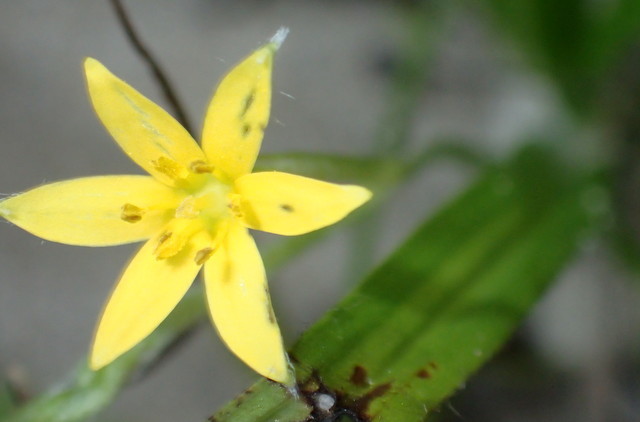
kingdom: Plantae
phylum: Tracheophyta
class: Liliopsida
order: Asparagales
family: Hypoxidaceae
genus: Hypoxis
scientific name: Hypoxis curtissii
